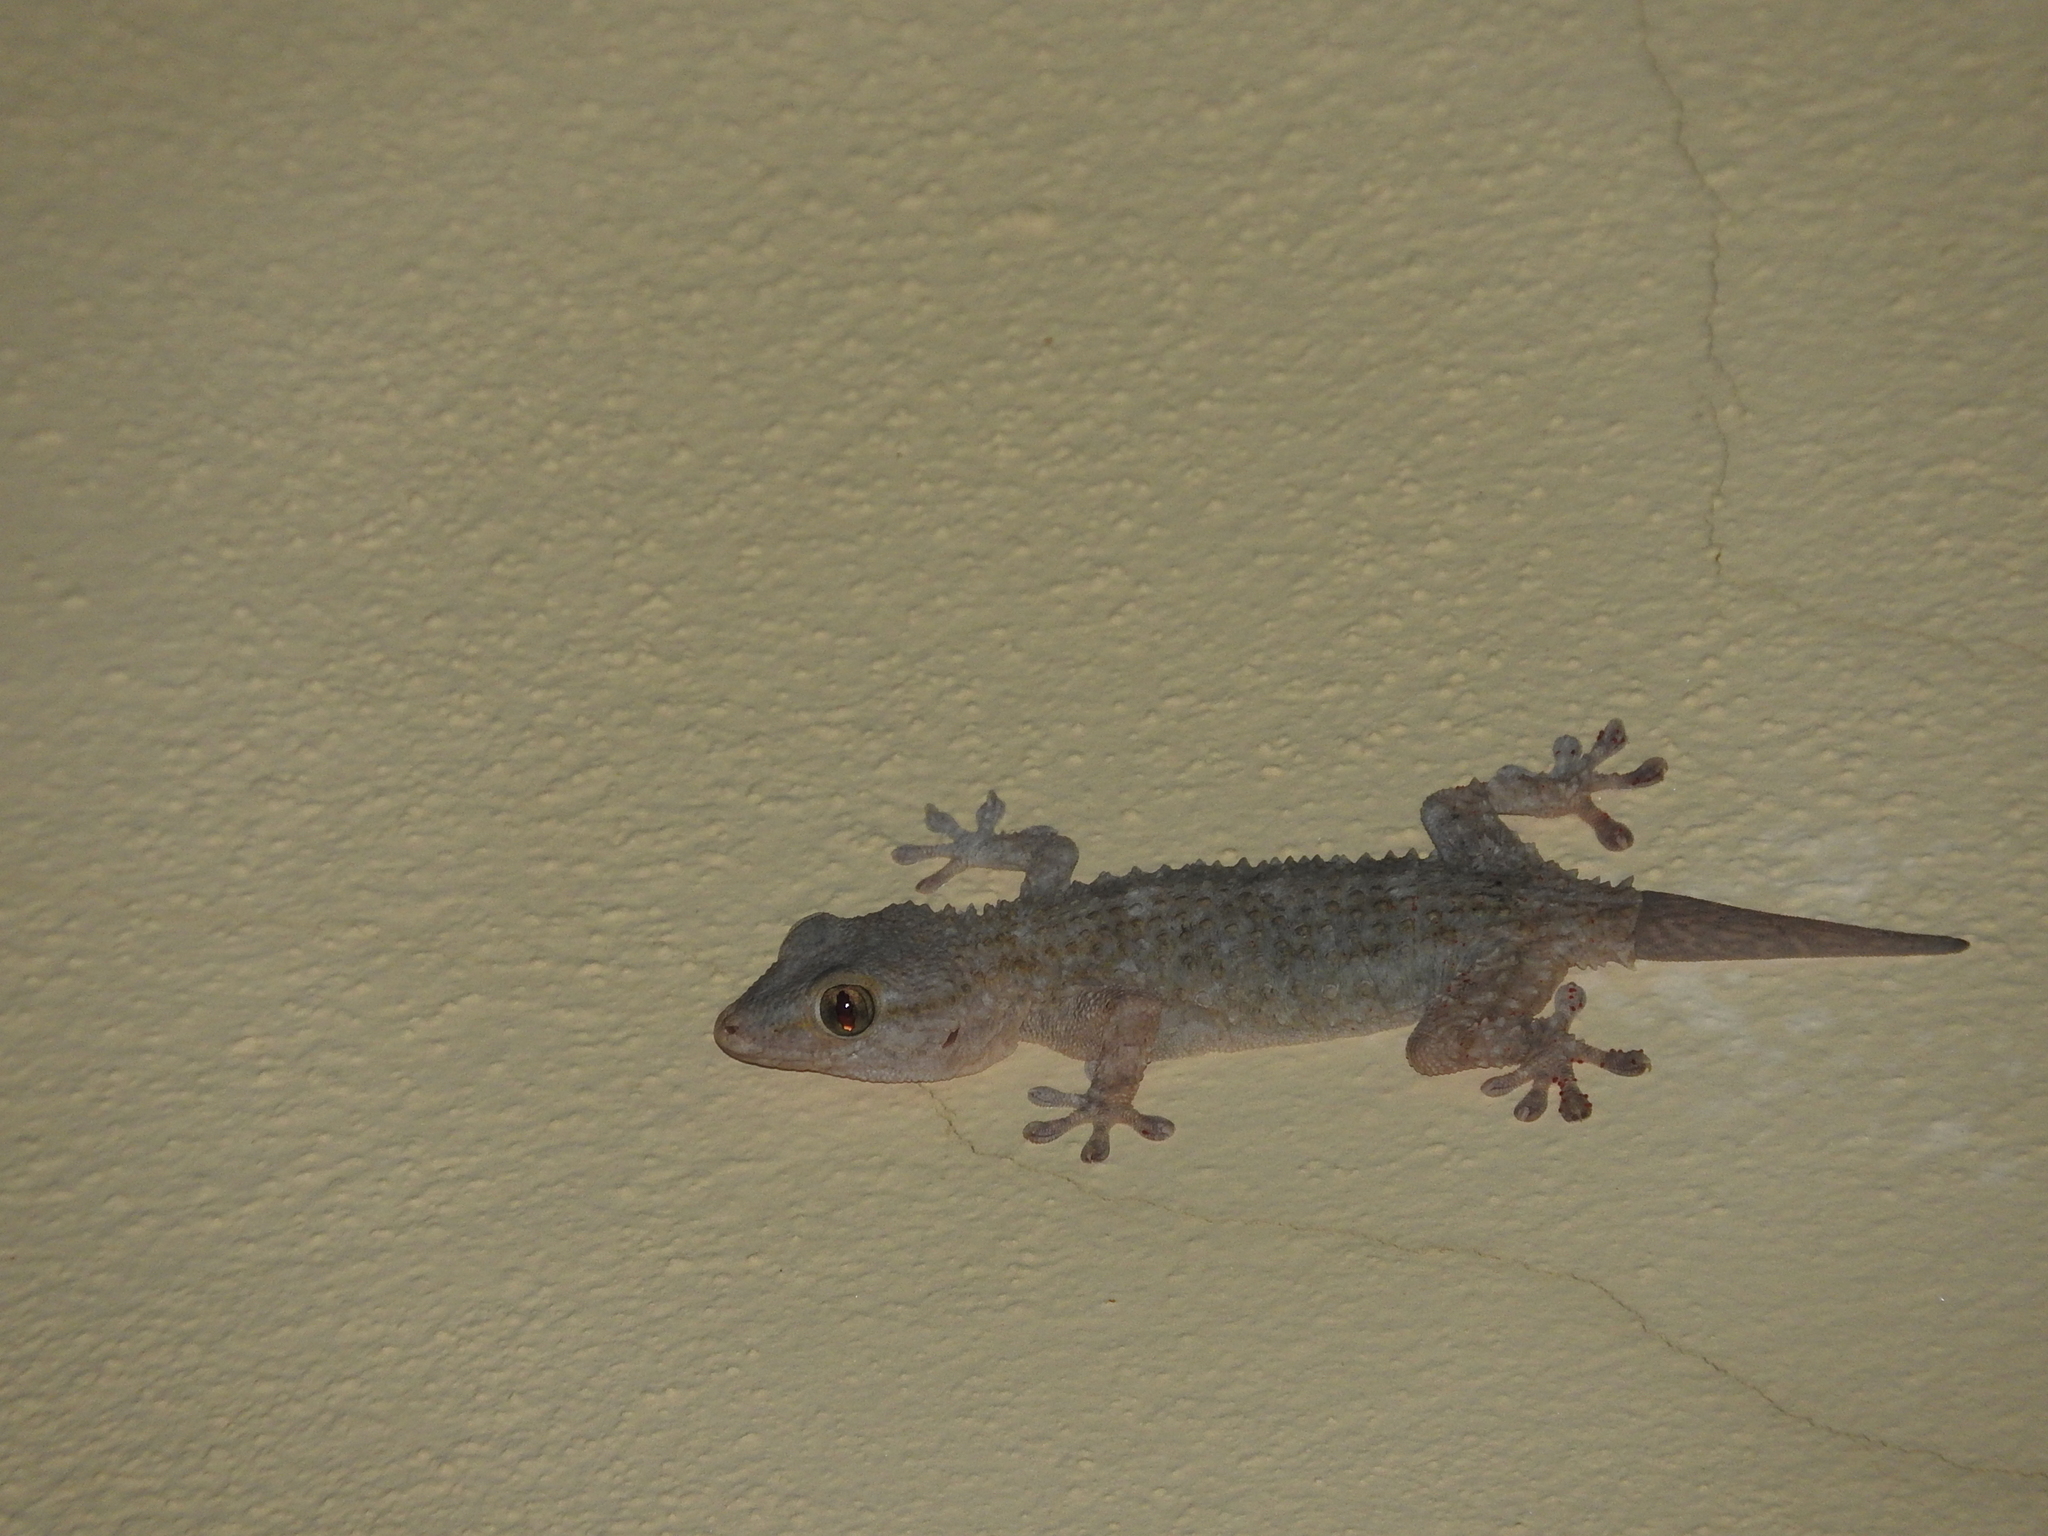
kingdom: Animalia
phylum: Chordata
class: Squamata
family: Phyllodactylidae
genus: Tarentola
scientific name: Tarentola mauritanica
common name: Moorish gecko
